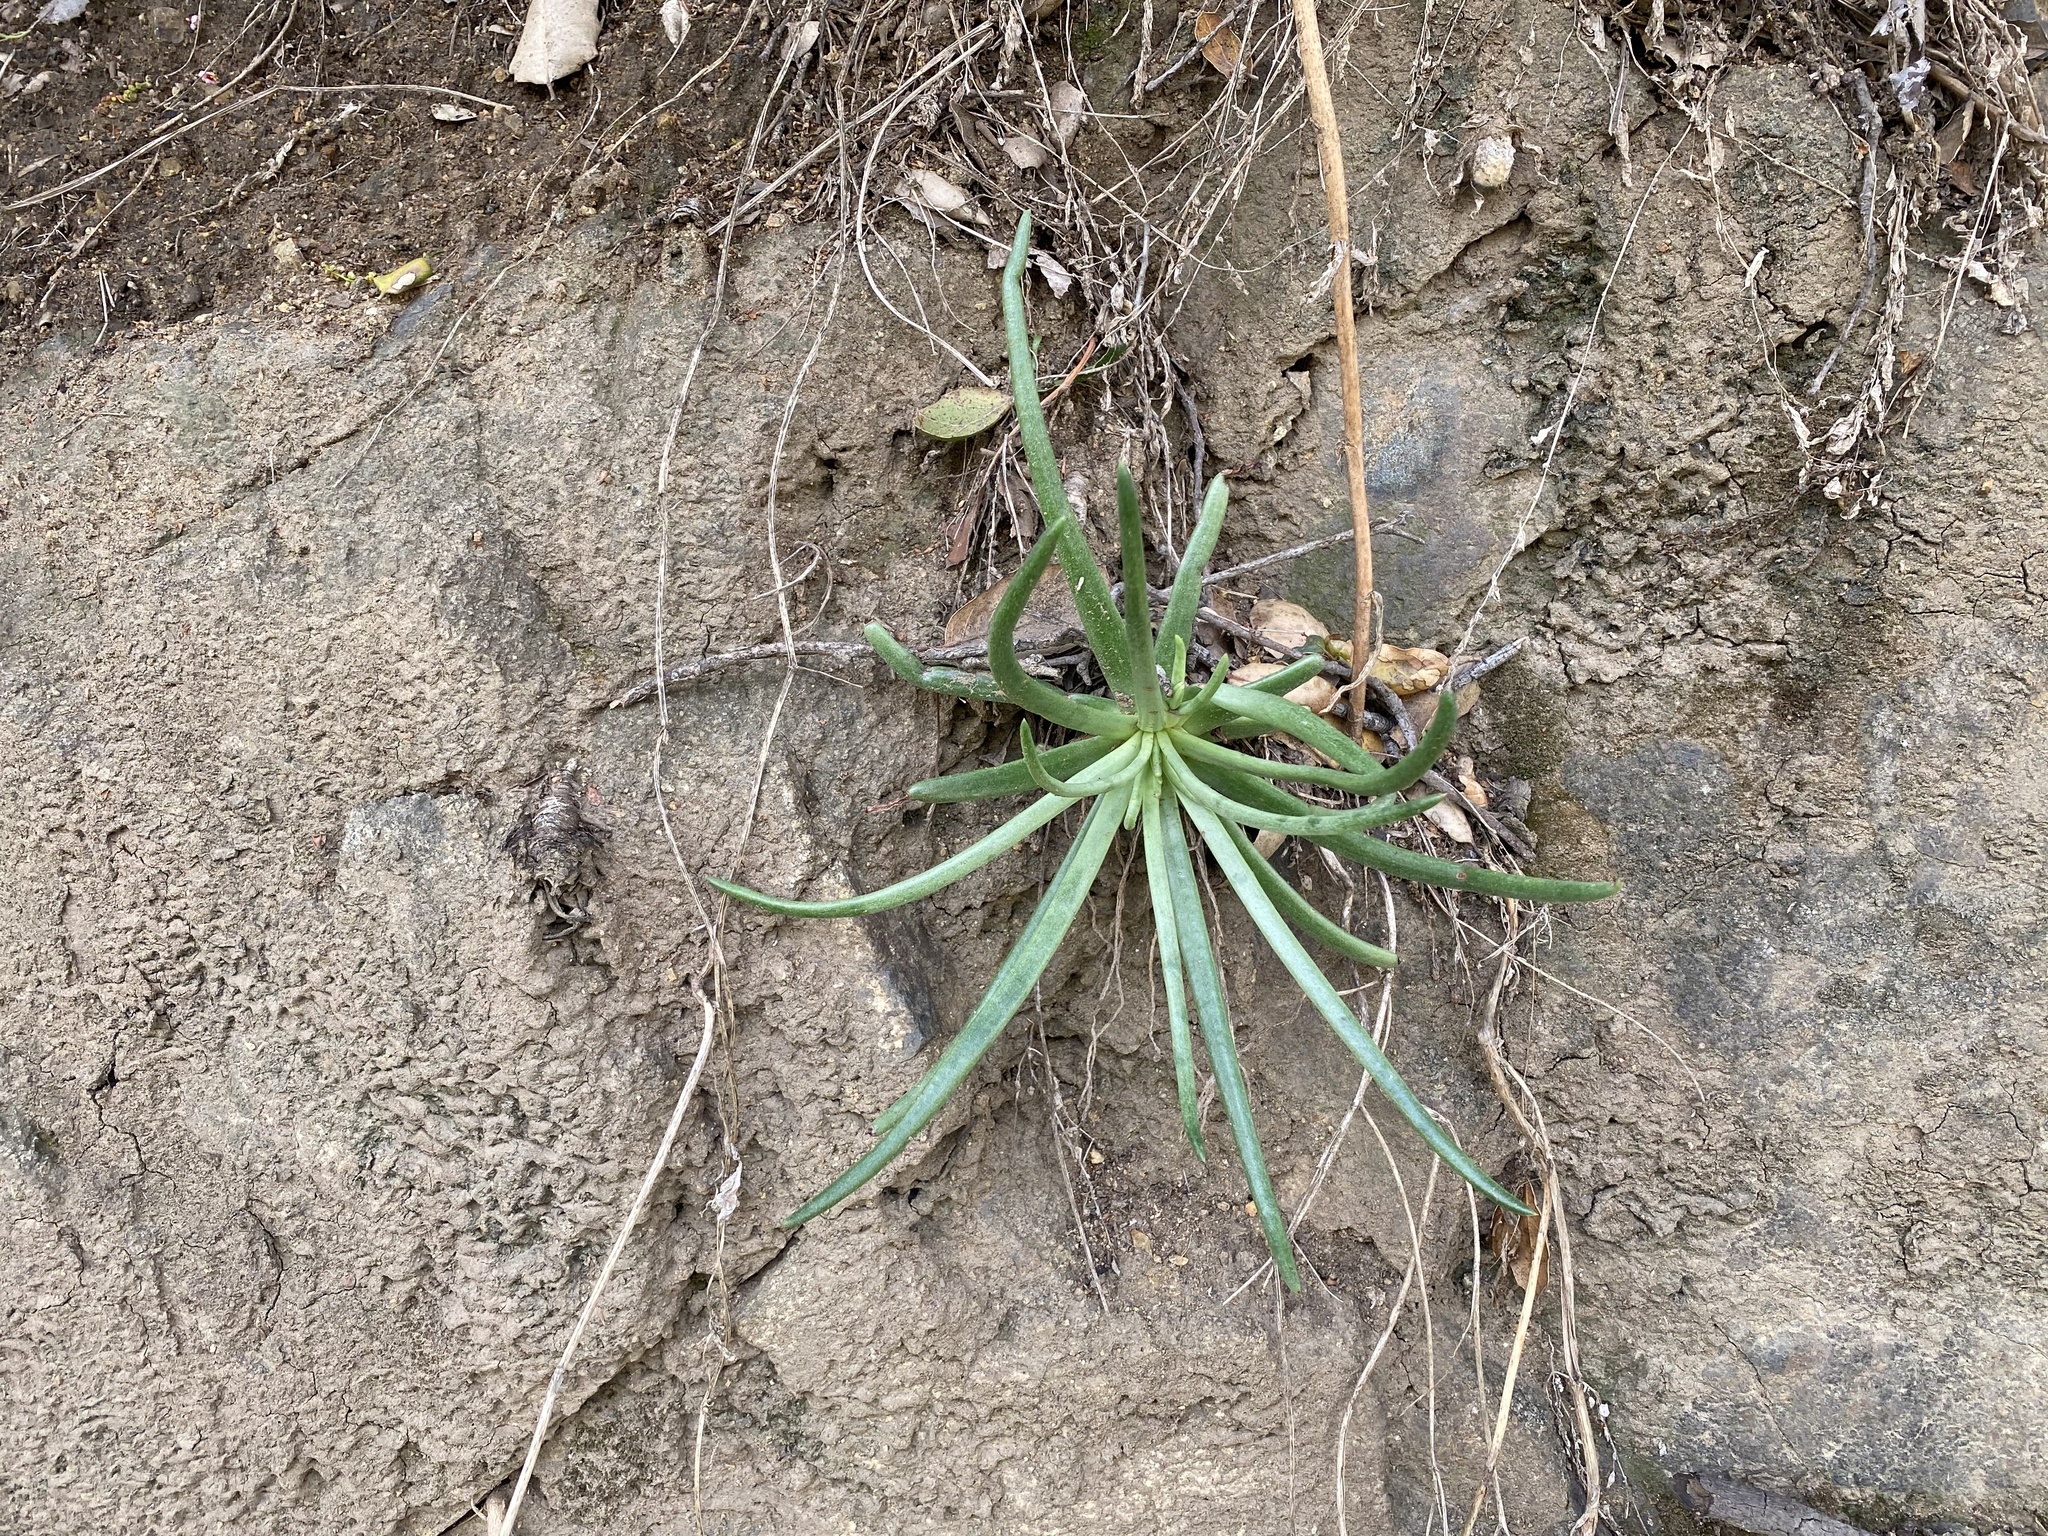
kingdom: Plantae
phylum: Tracheophyta
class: Magnoliopsida
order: Saxifragales
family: Crassulaceae
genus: Dudleya
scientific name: Dudleya edulis
